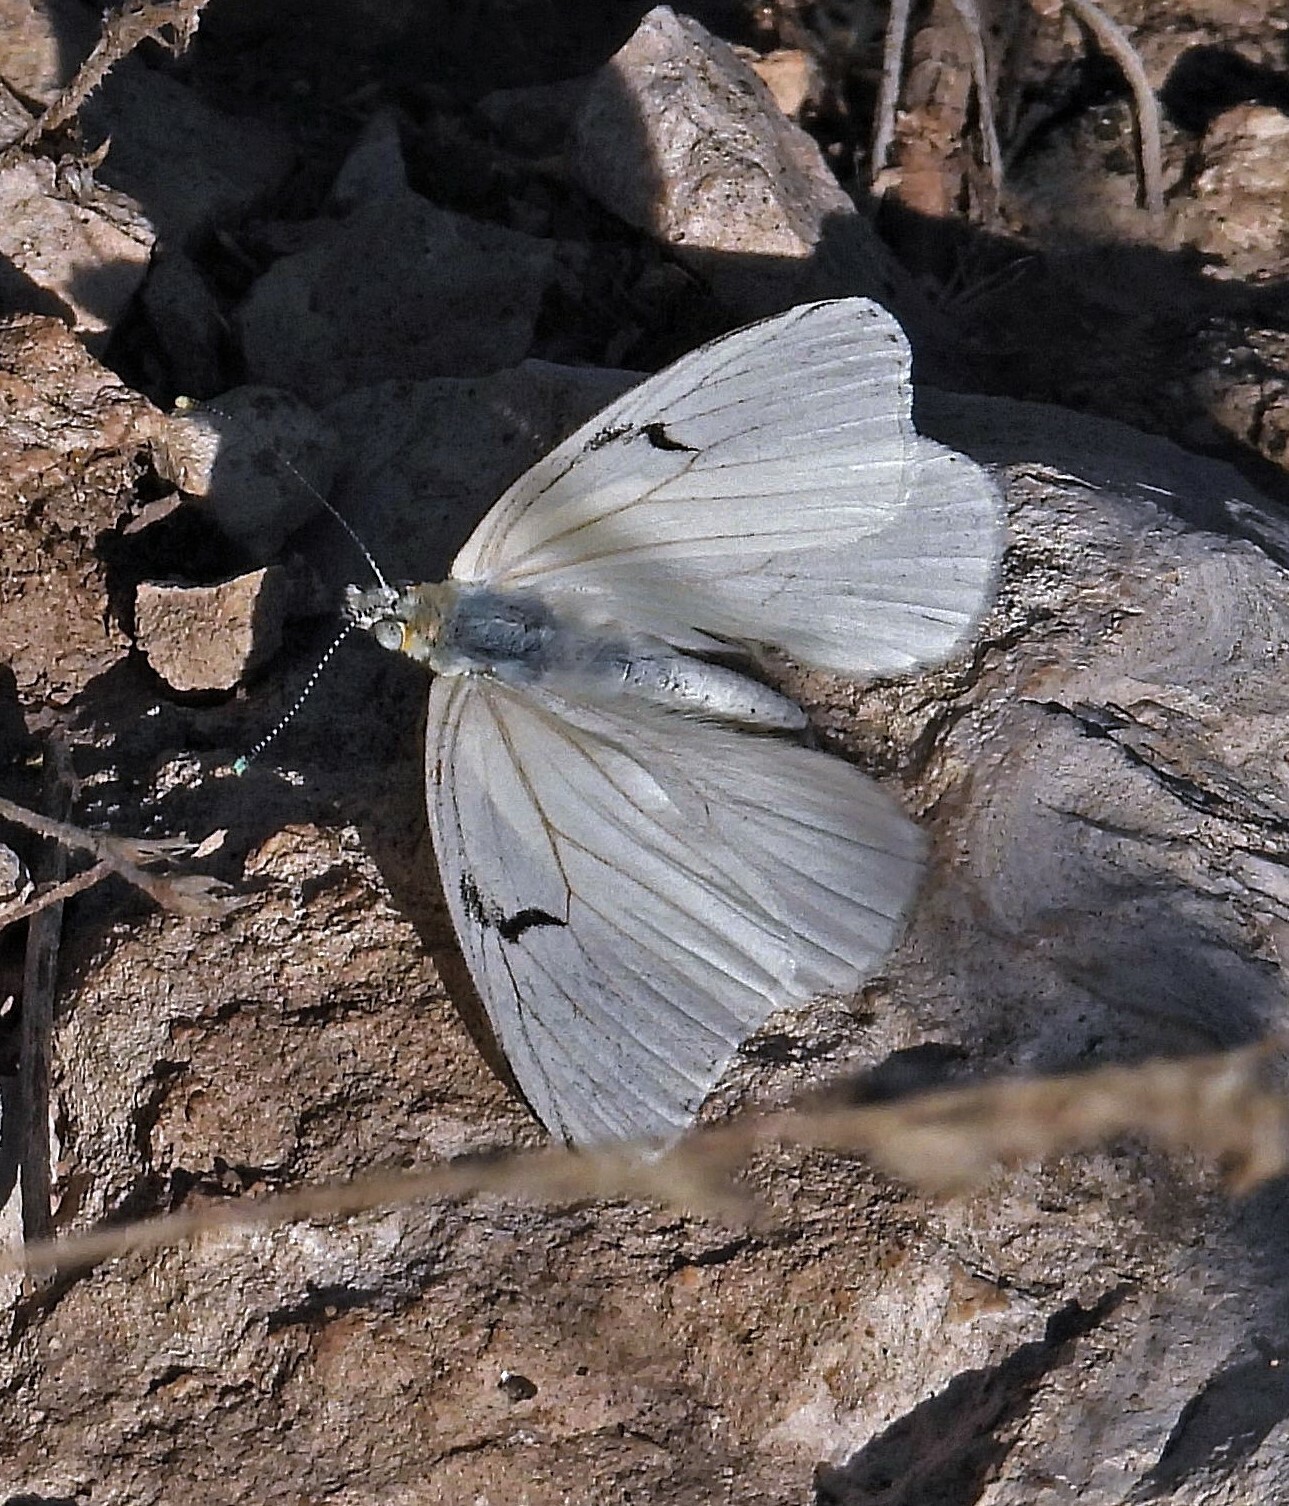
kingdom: Animalia
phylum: Arthropoda
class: Insecta
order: Lepidoptera
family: Pieridae
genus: Tatochila
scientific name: Tatochila mercedis
